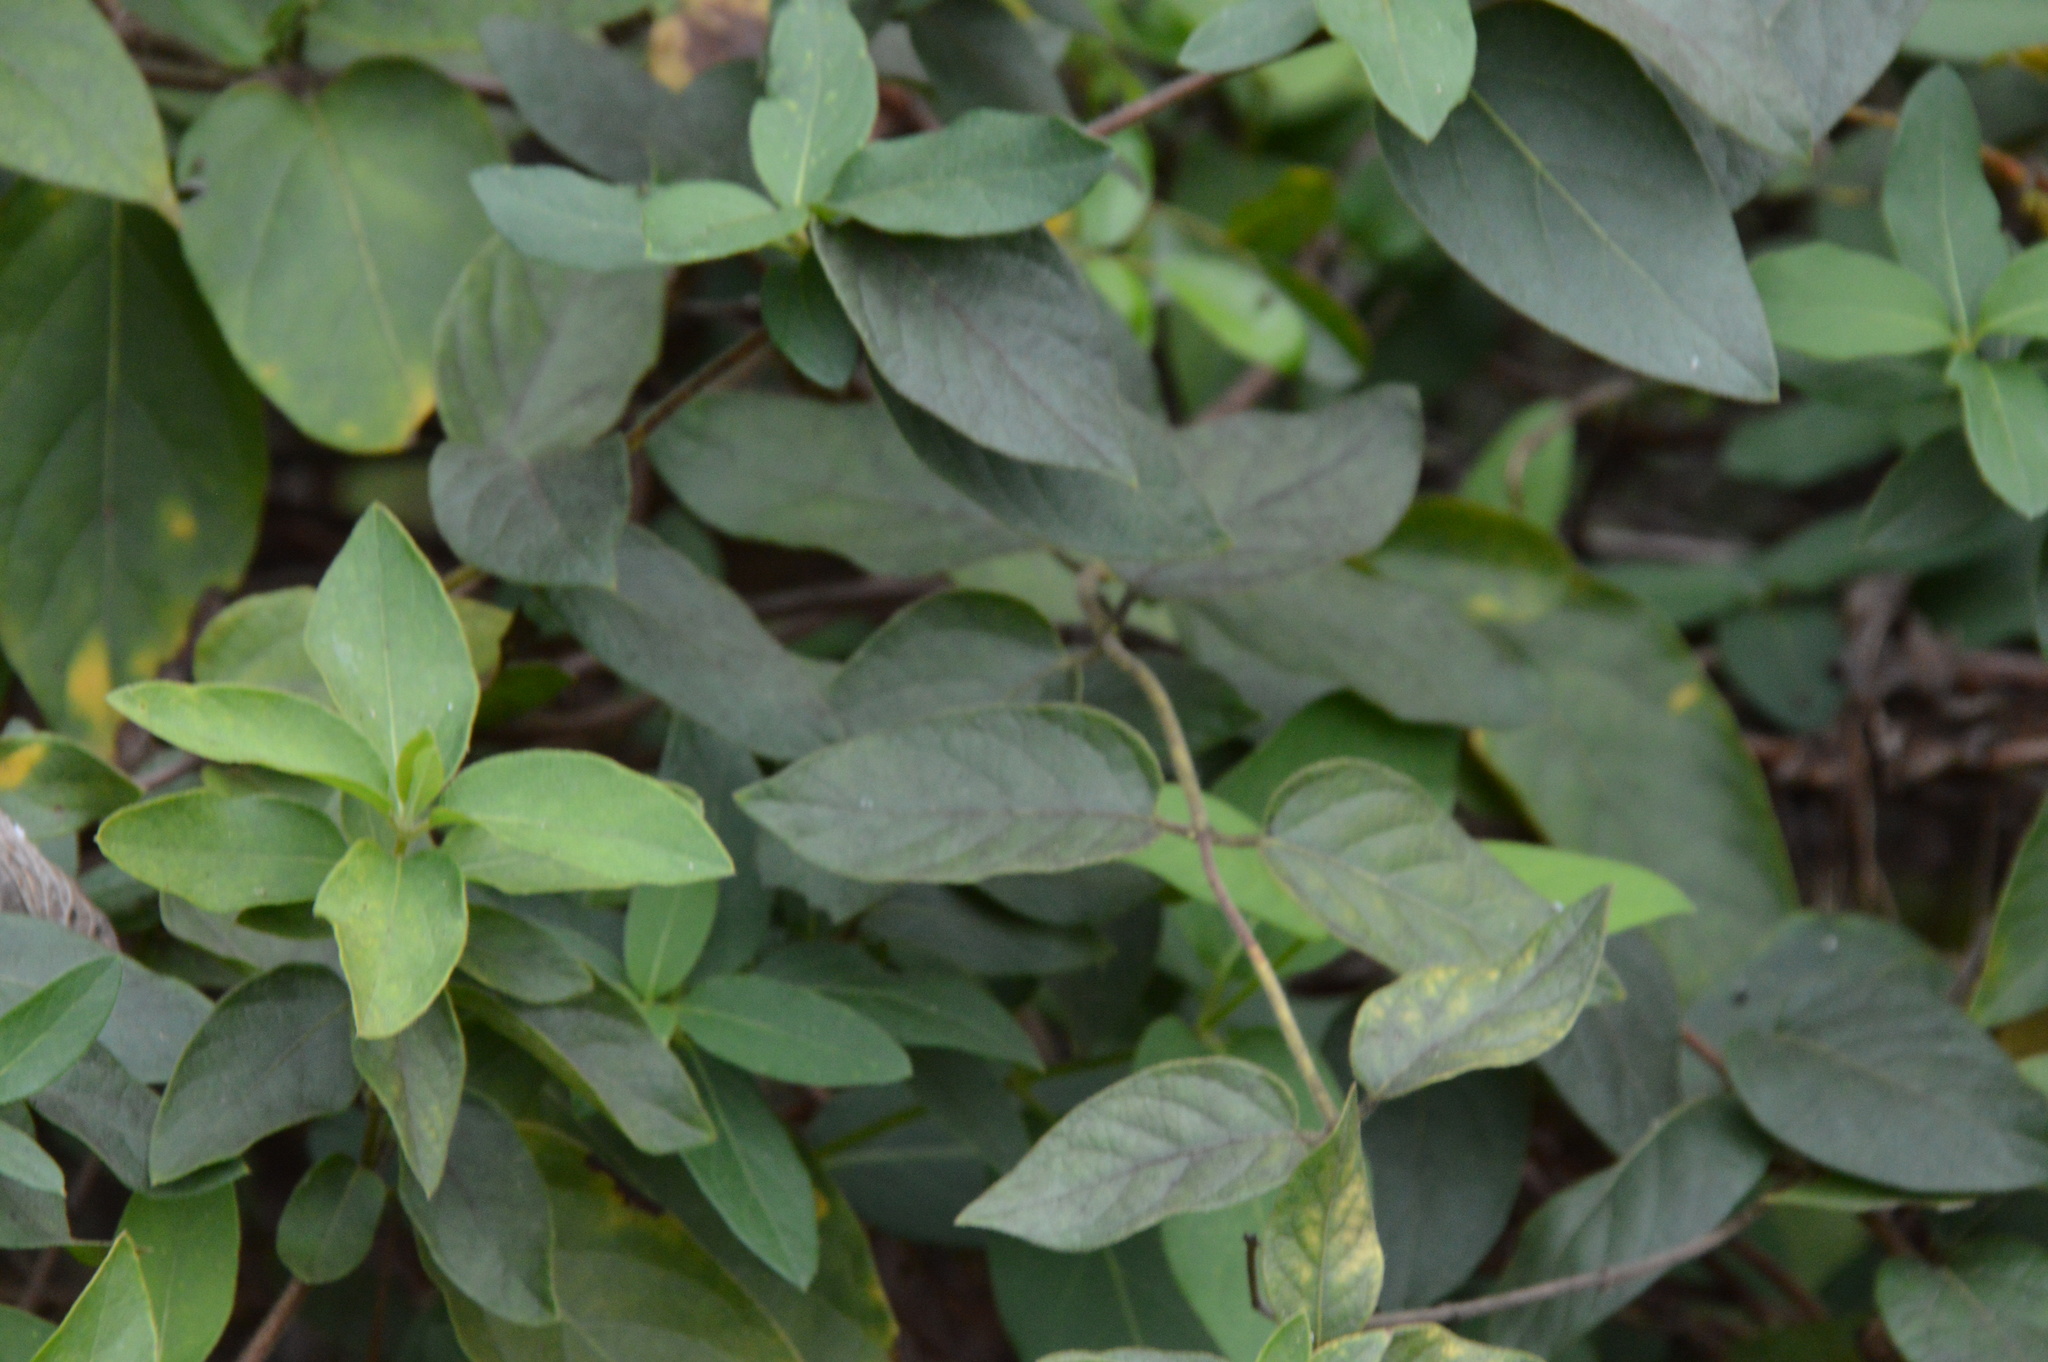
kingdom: Plantae
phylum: Tracheophyta
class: Magnoliopsida
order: Dipsacales
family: Caprifoliaceae
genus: Lonicera
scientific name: Lonicera japonica
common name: Japanese honeysuckle
